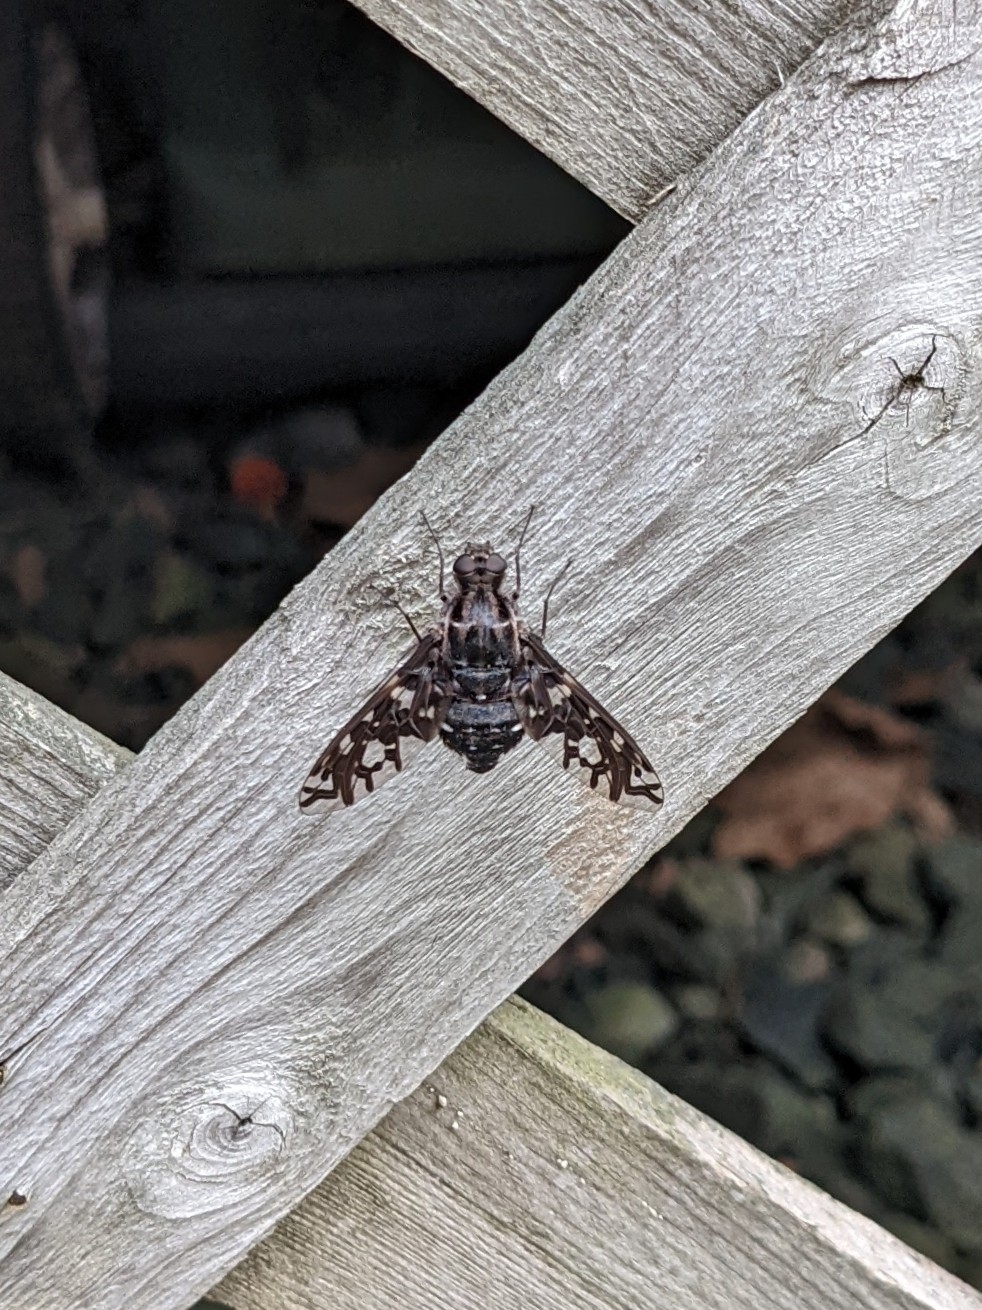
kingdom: Animalia
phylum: Arthropoda
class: Insecta
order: Diptera
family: Bombyliidae
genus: Xenox
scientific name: Xenox tigrinus
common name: Tiger bee fly
